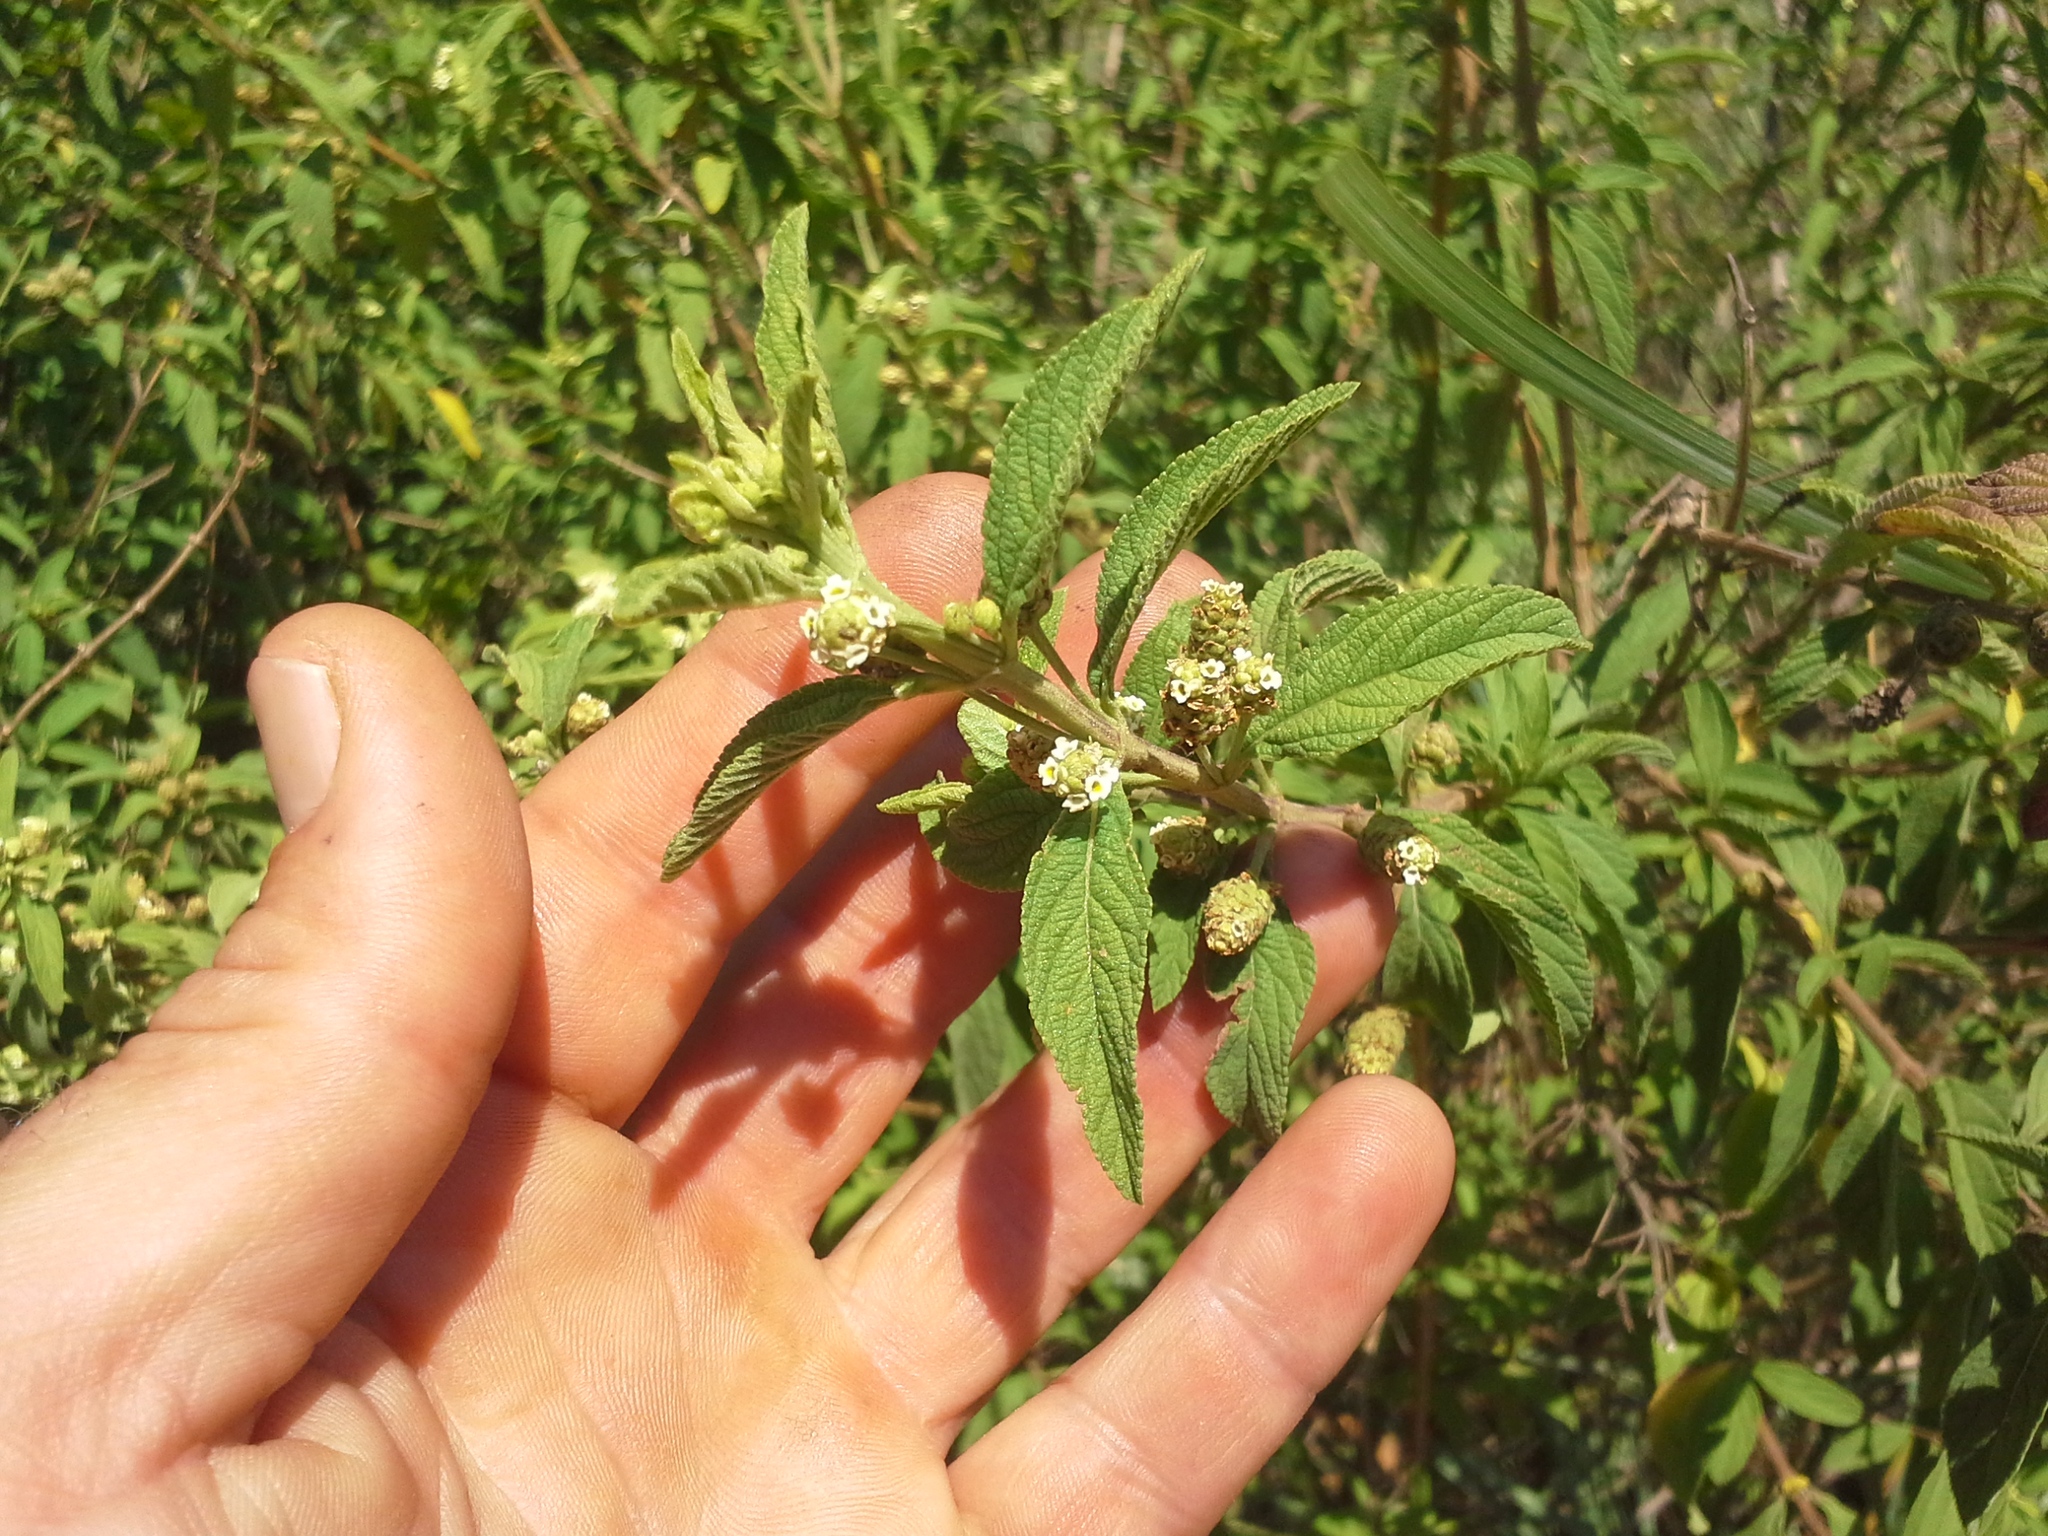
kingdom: Plantae
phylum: Tracheophyta
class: Magnoliopsida
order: Lamiales
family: Verbenaceae
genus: Lippia
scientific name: Lippia javanica
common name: Lemonbush
